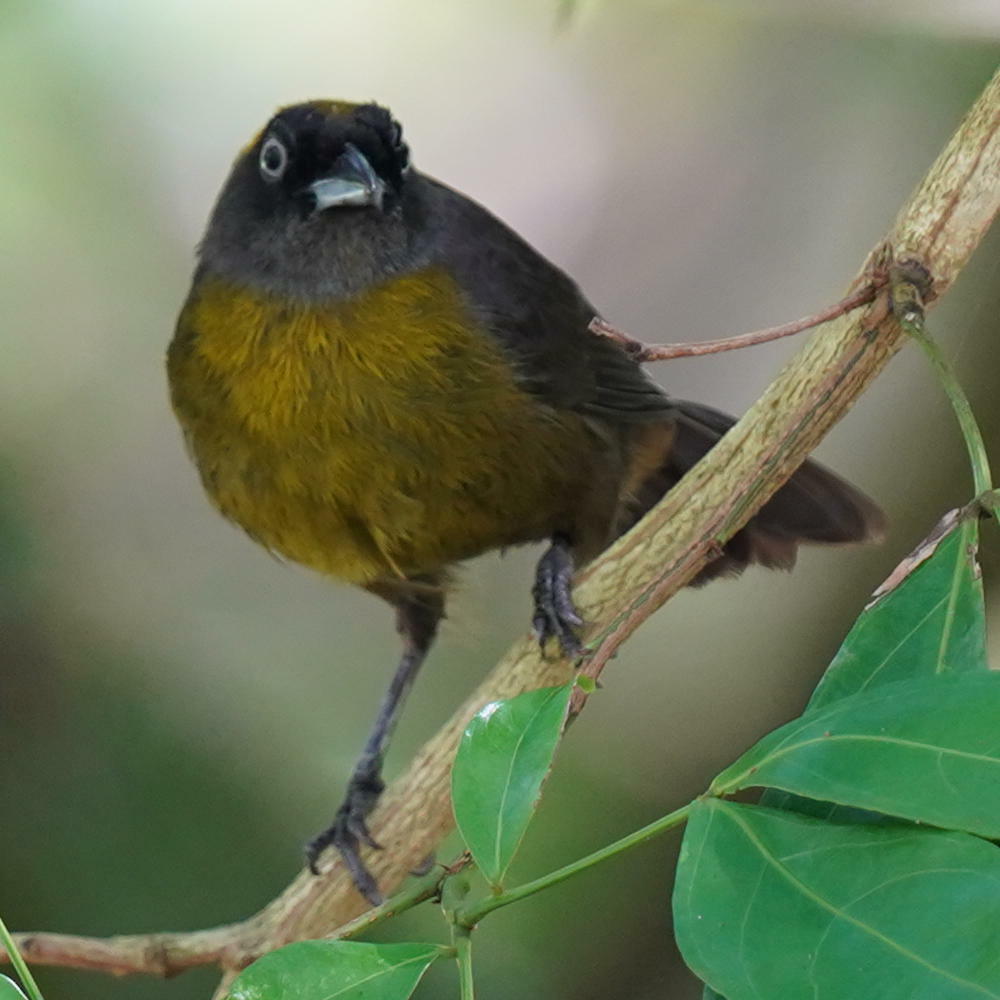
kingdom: Animalia
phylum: Chordata
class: Aves
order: Passeriformes
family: Mitrospingidae
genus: Mitrospingus
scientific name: Mitrospingus cassinii
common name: Dusky-faced tanager
